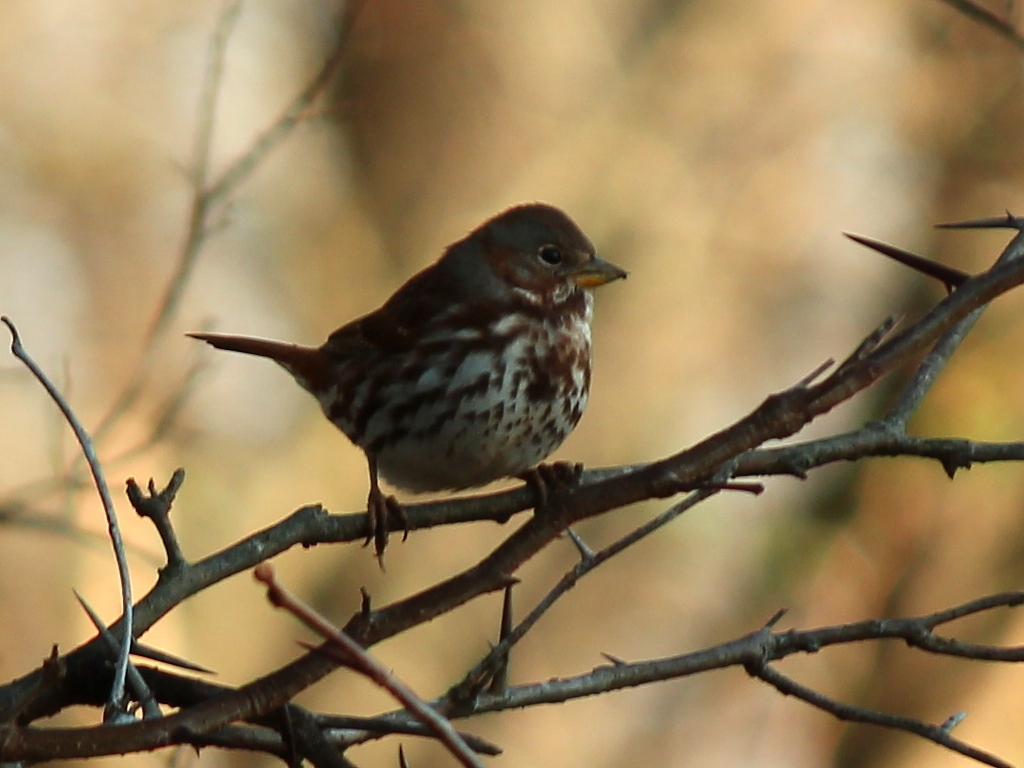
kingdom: Animalia
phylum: Chordata
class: Aves
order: Passeriformes
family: Passerellidae
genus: Passerella
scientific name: Passerella iliaca
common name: Fox sparrow
